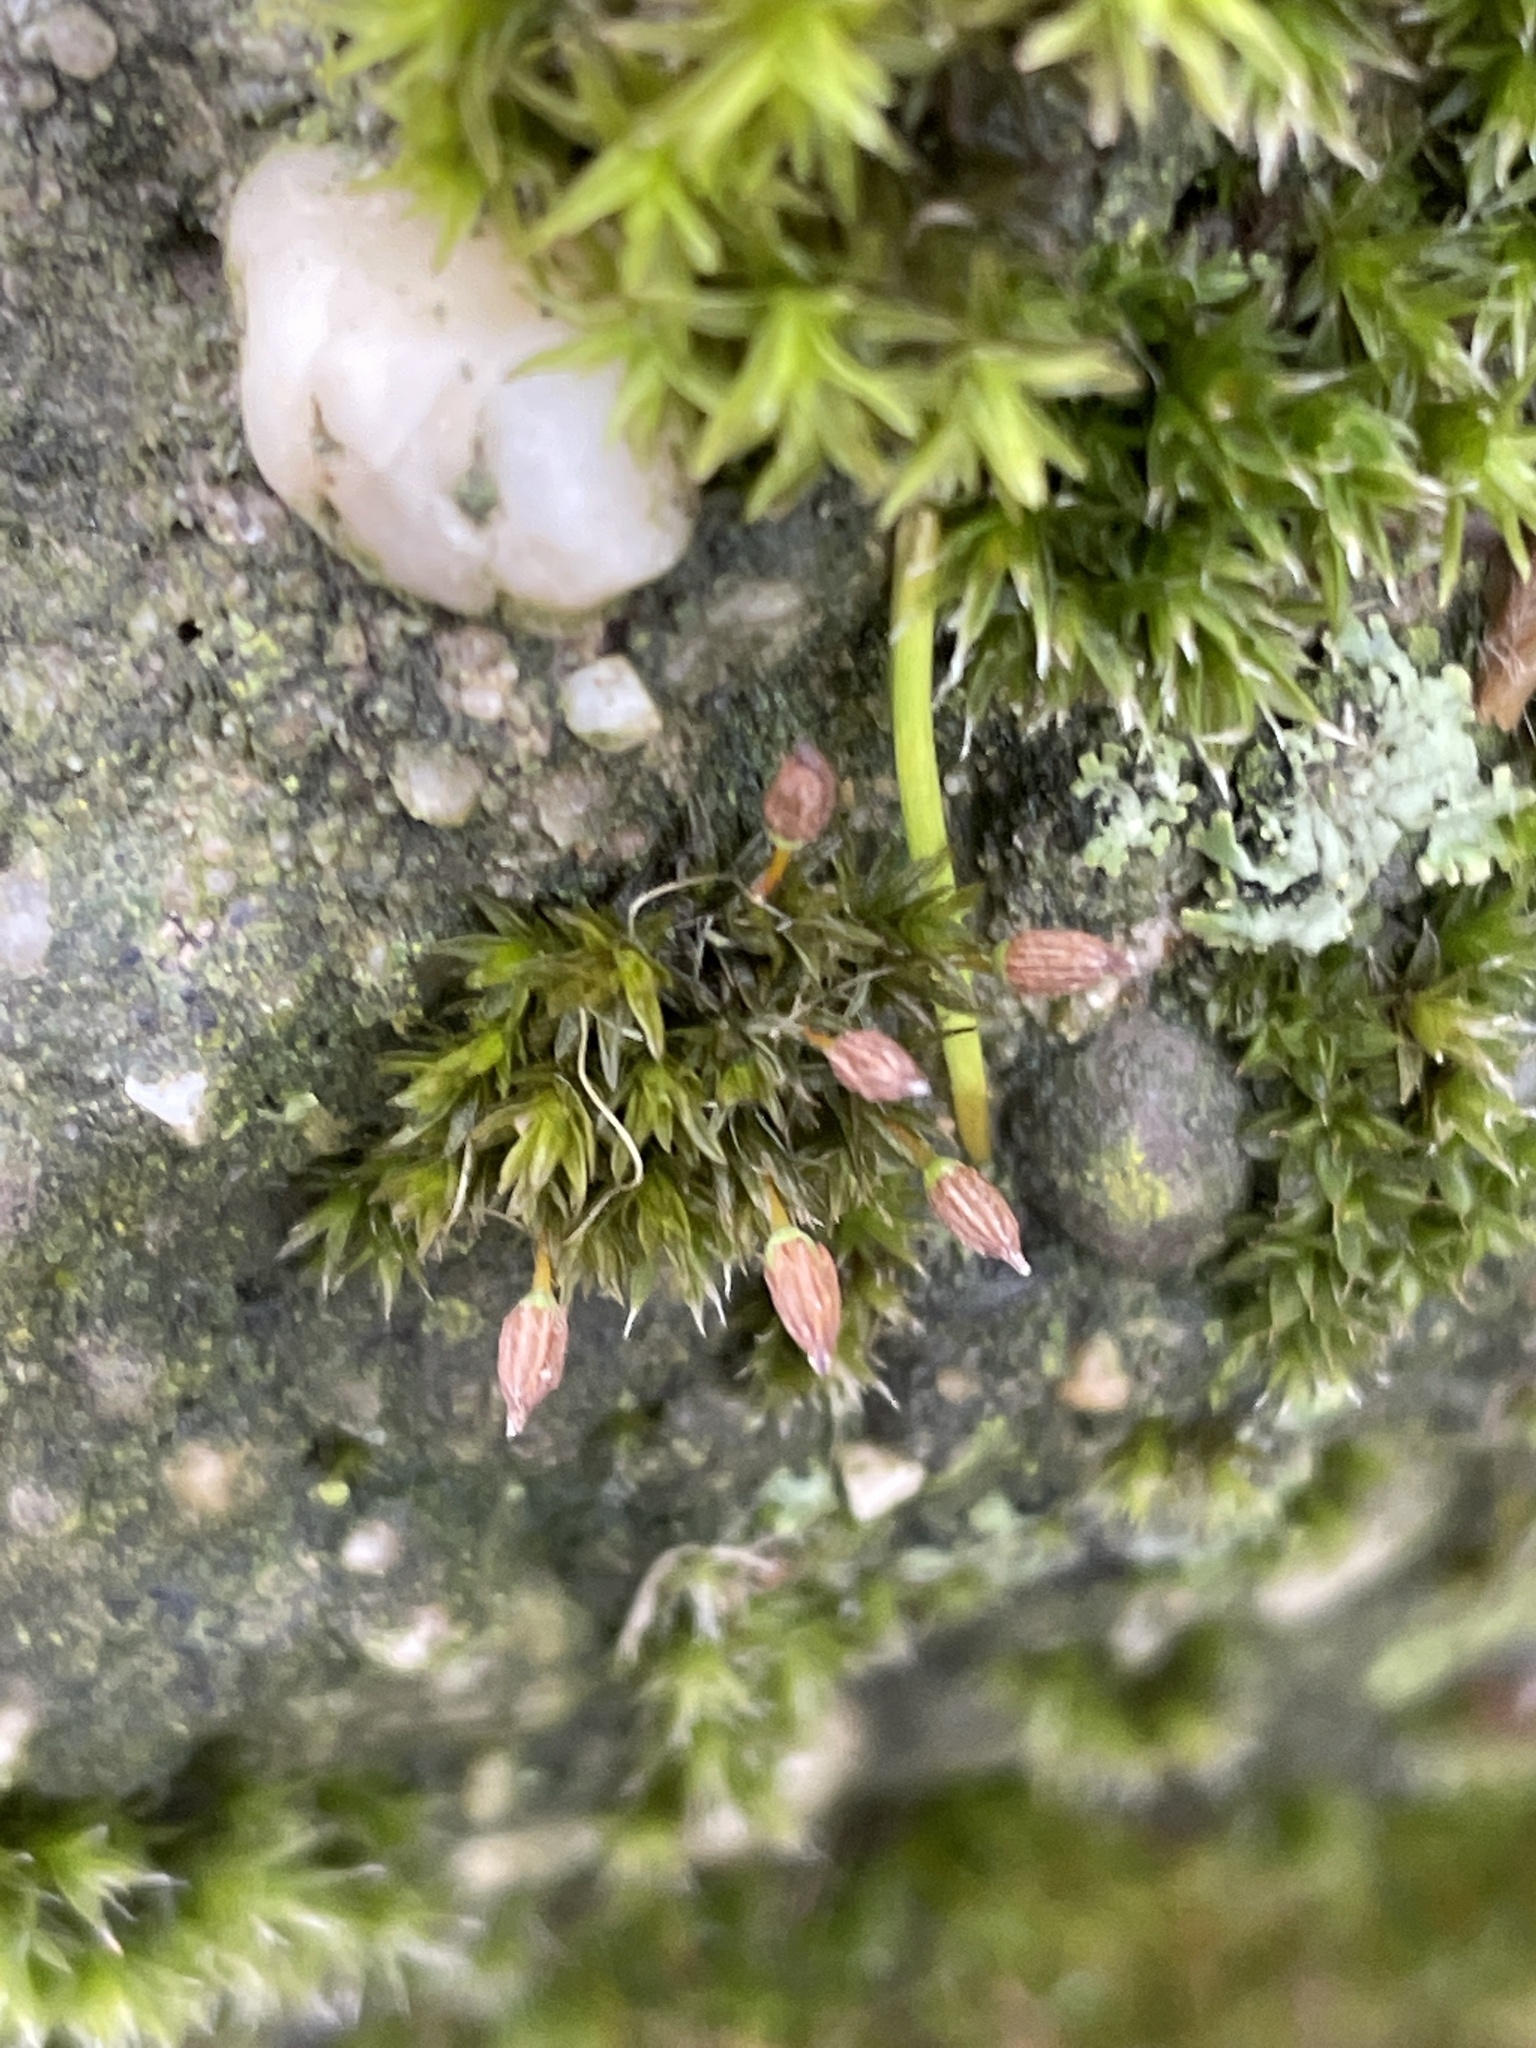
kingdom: Plantae
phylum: Bryophyta
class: Bryopsida
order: Orthotrichales
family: Orthotrichaceae
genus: Orthotrichum
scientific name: Orthotrichum anomalum
